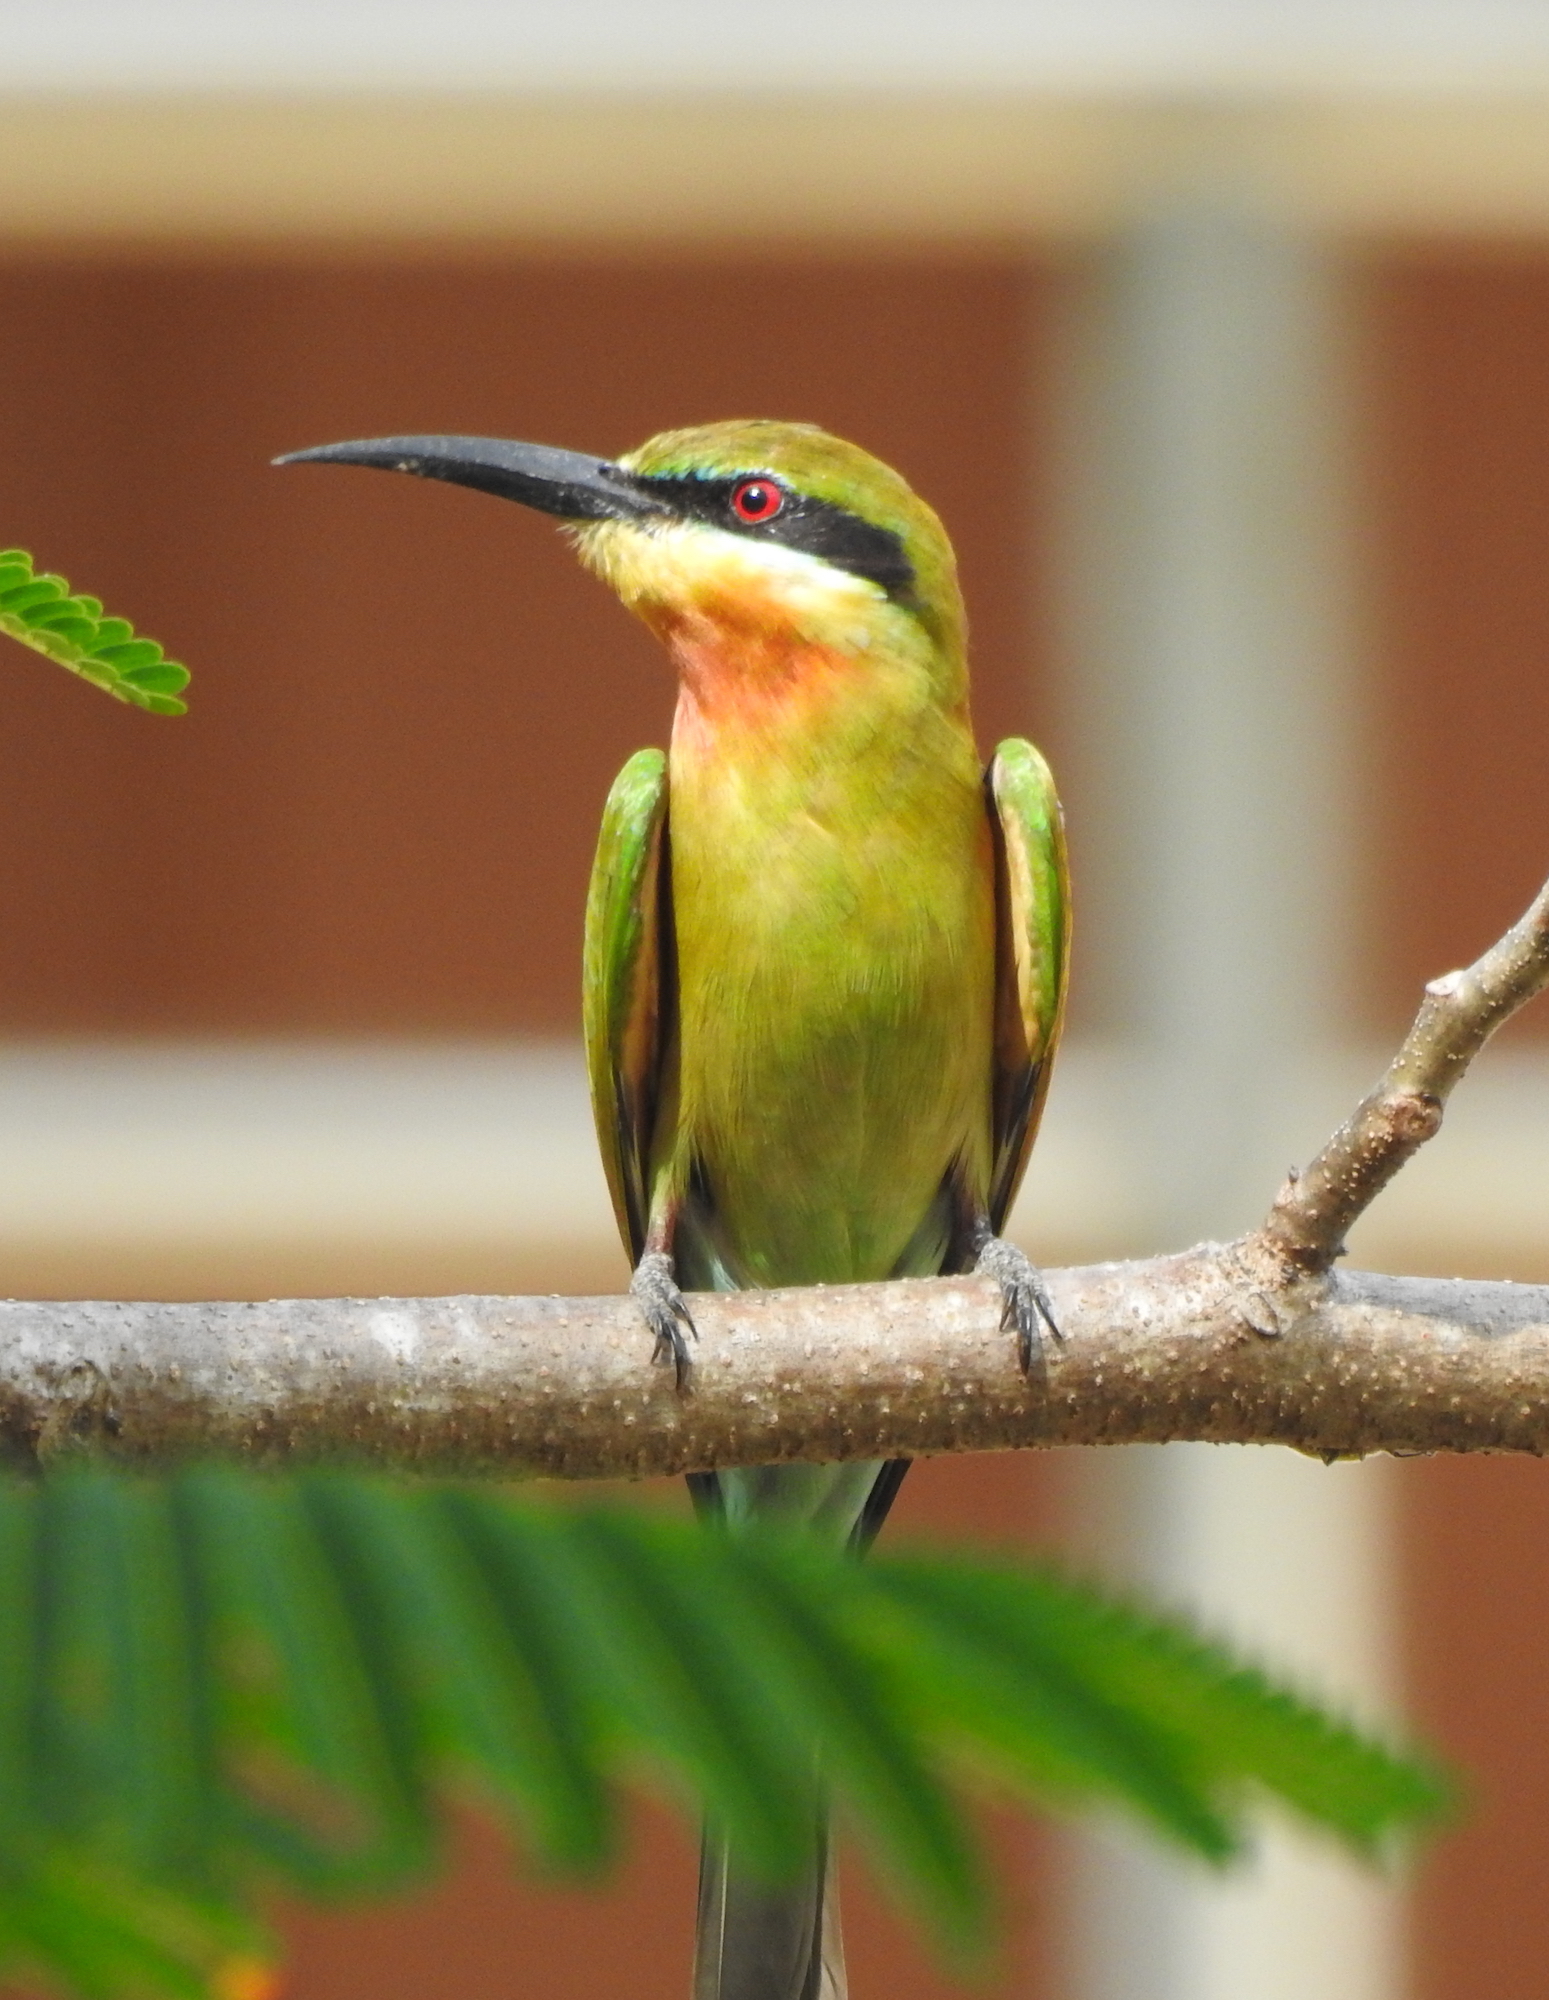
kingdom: Animalia
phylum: Chordata
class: Aves
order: Coraciiformes
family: Meropidae
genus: Merops
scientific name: Merops philippinus
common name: Blue-tailed bee-eater
